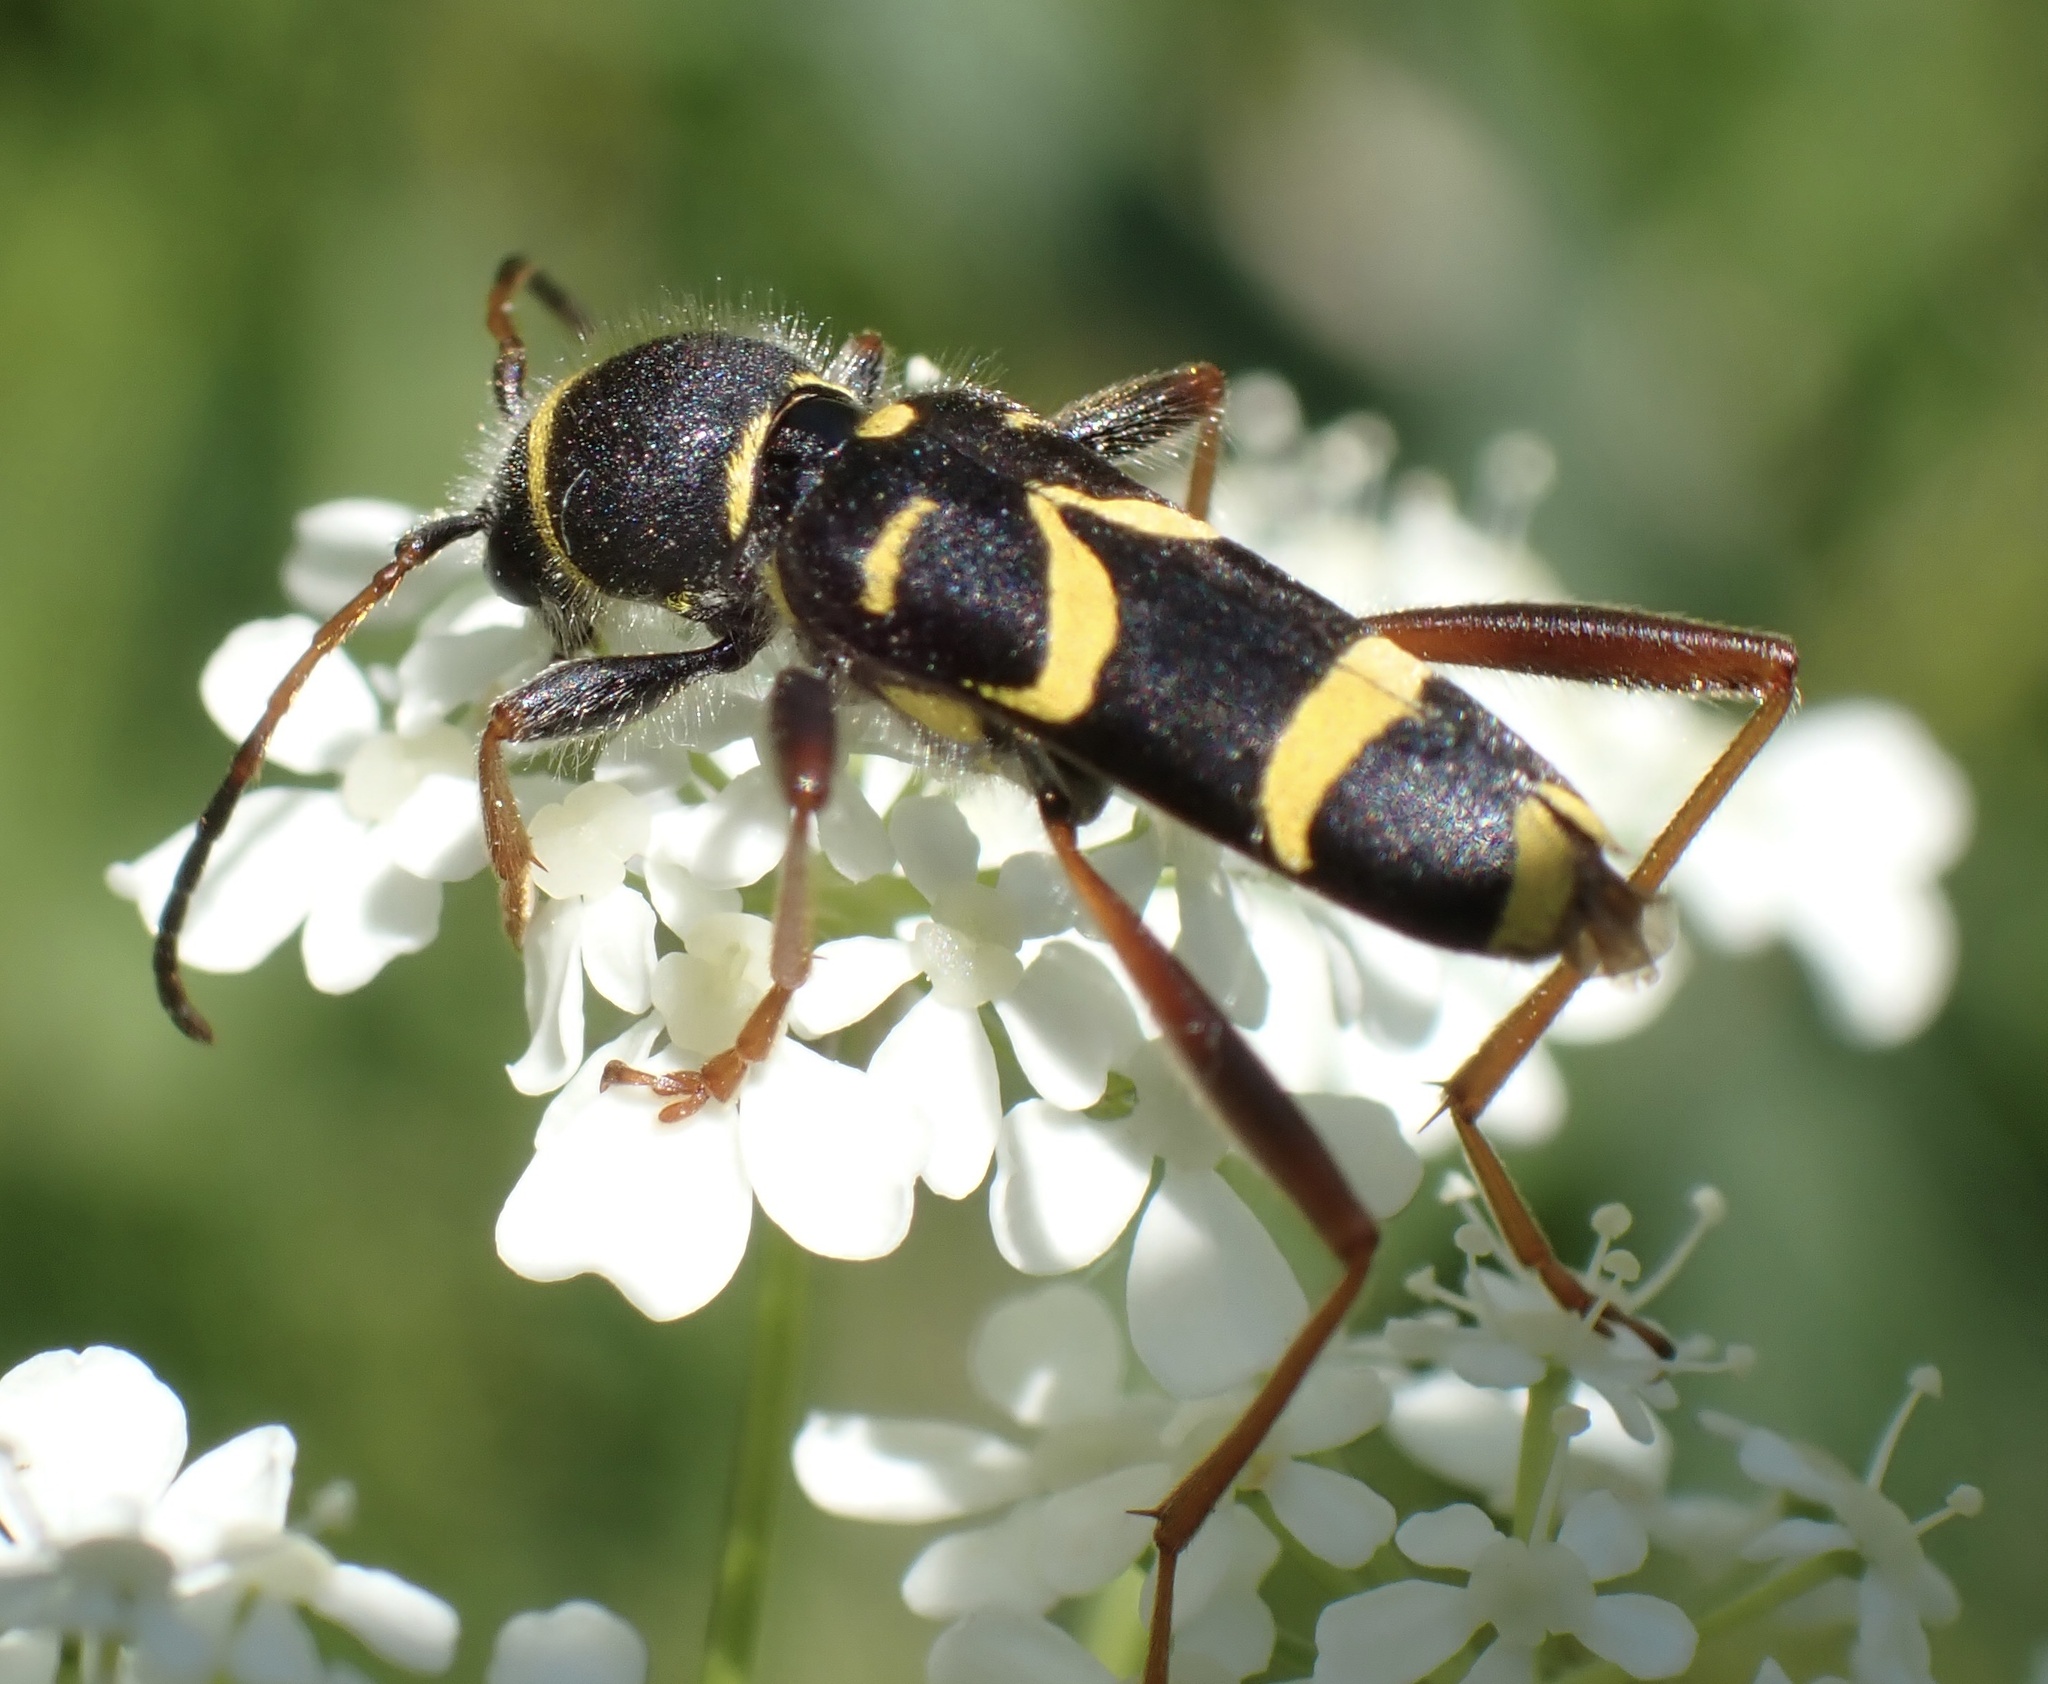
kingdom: Animalia
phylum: Arthropoda
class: Insecta
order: Coleoptera
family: Cerambycidae
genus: Clytus
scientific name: Clytus arietis
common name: Wasp beetle
